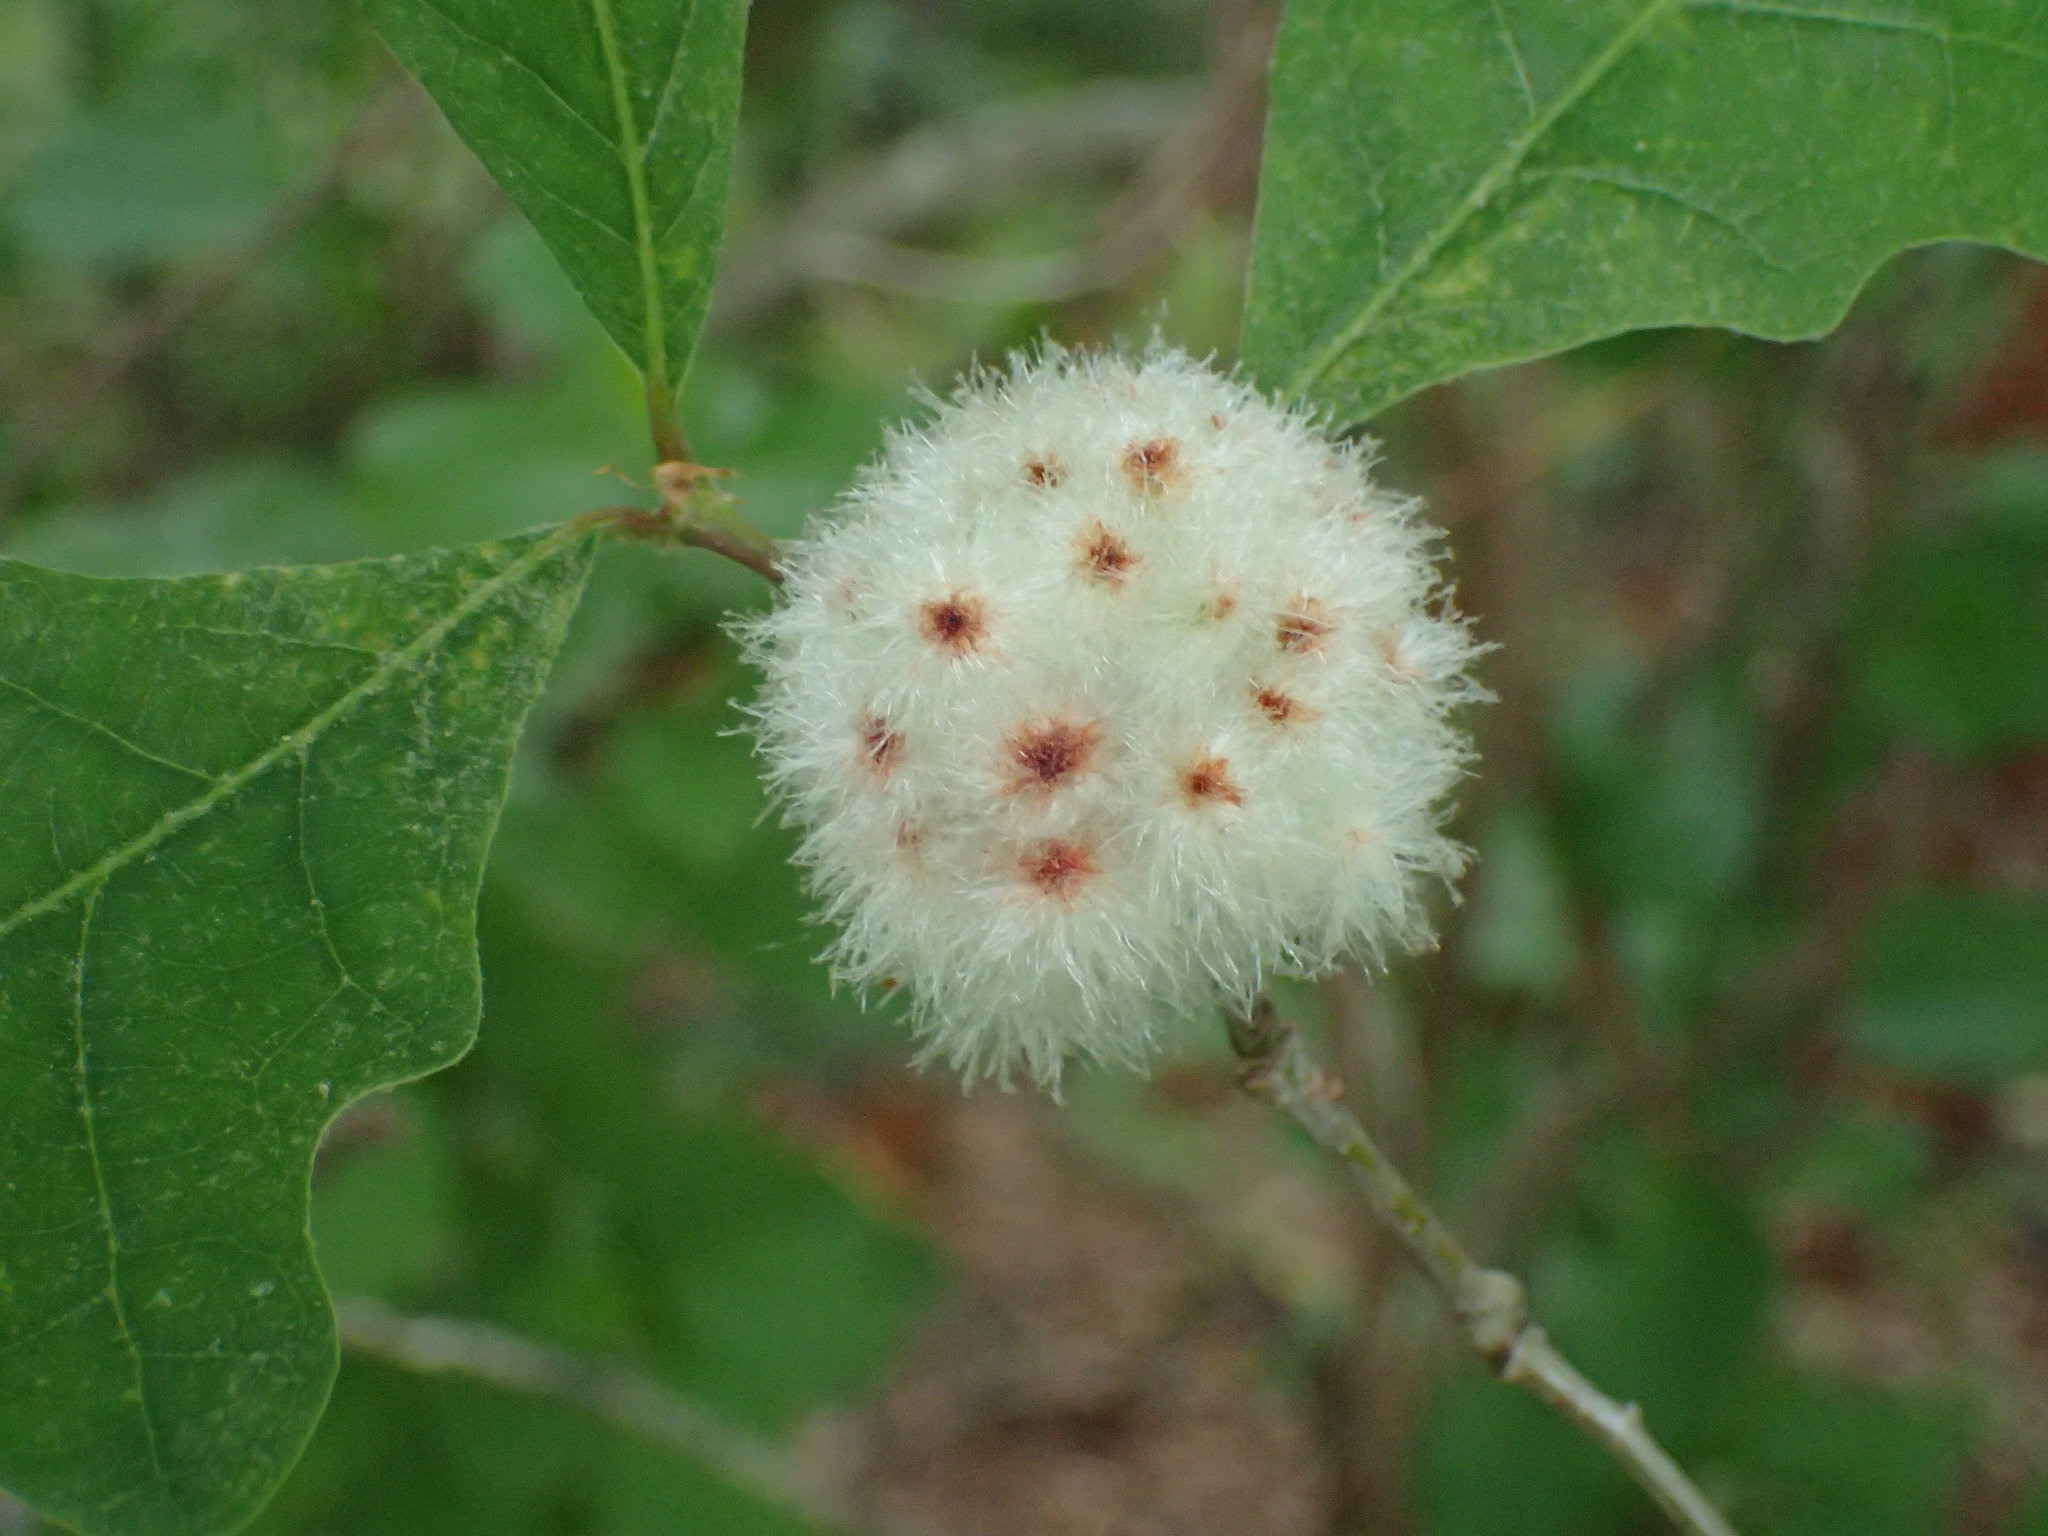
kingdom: Animalia
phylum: Arthropoda
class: Insecta
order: Hymenoptera
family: Cynipidae
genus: Callirhytis
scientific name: Callirhytis
